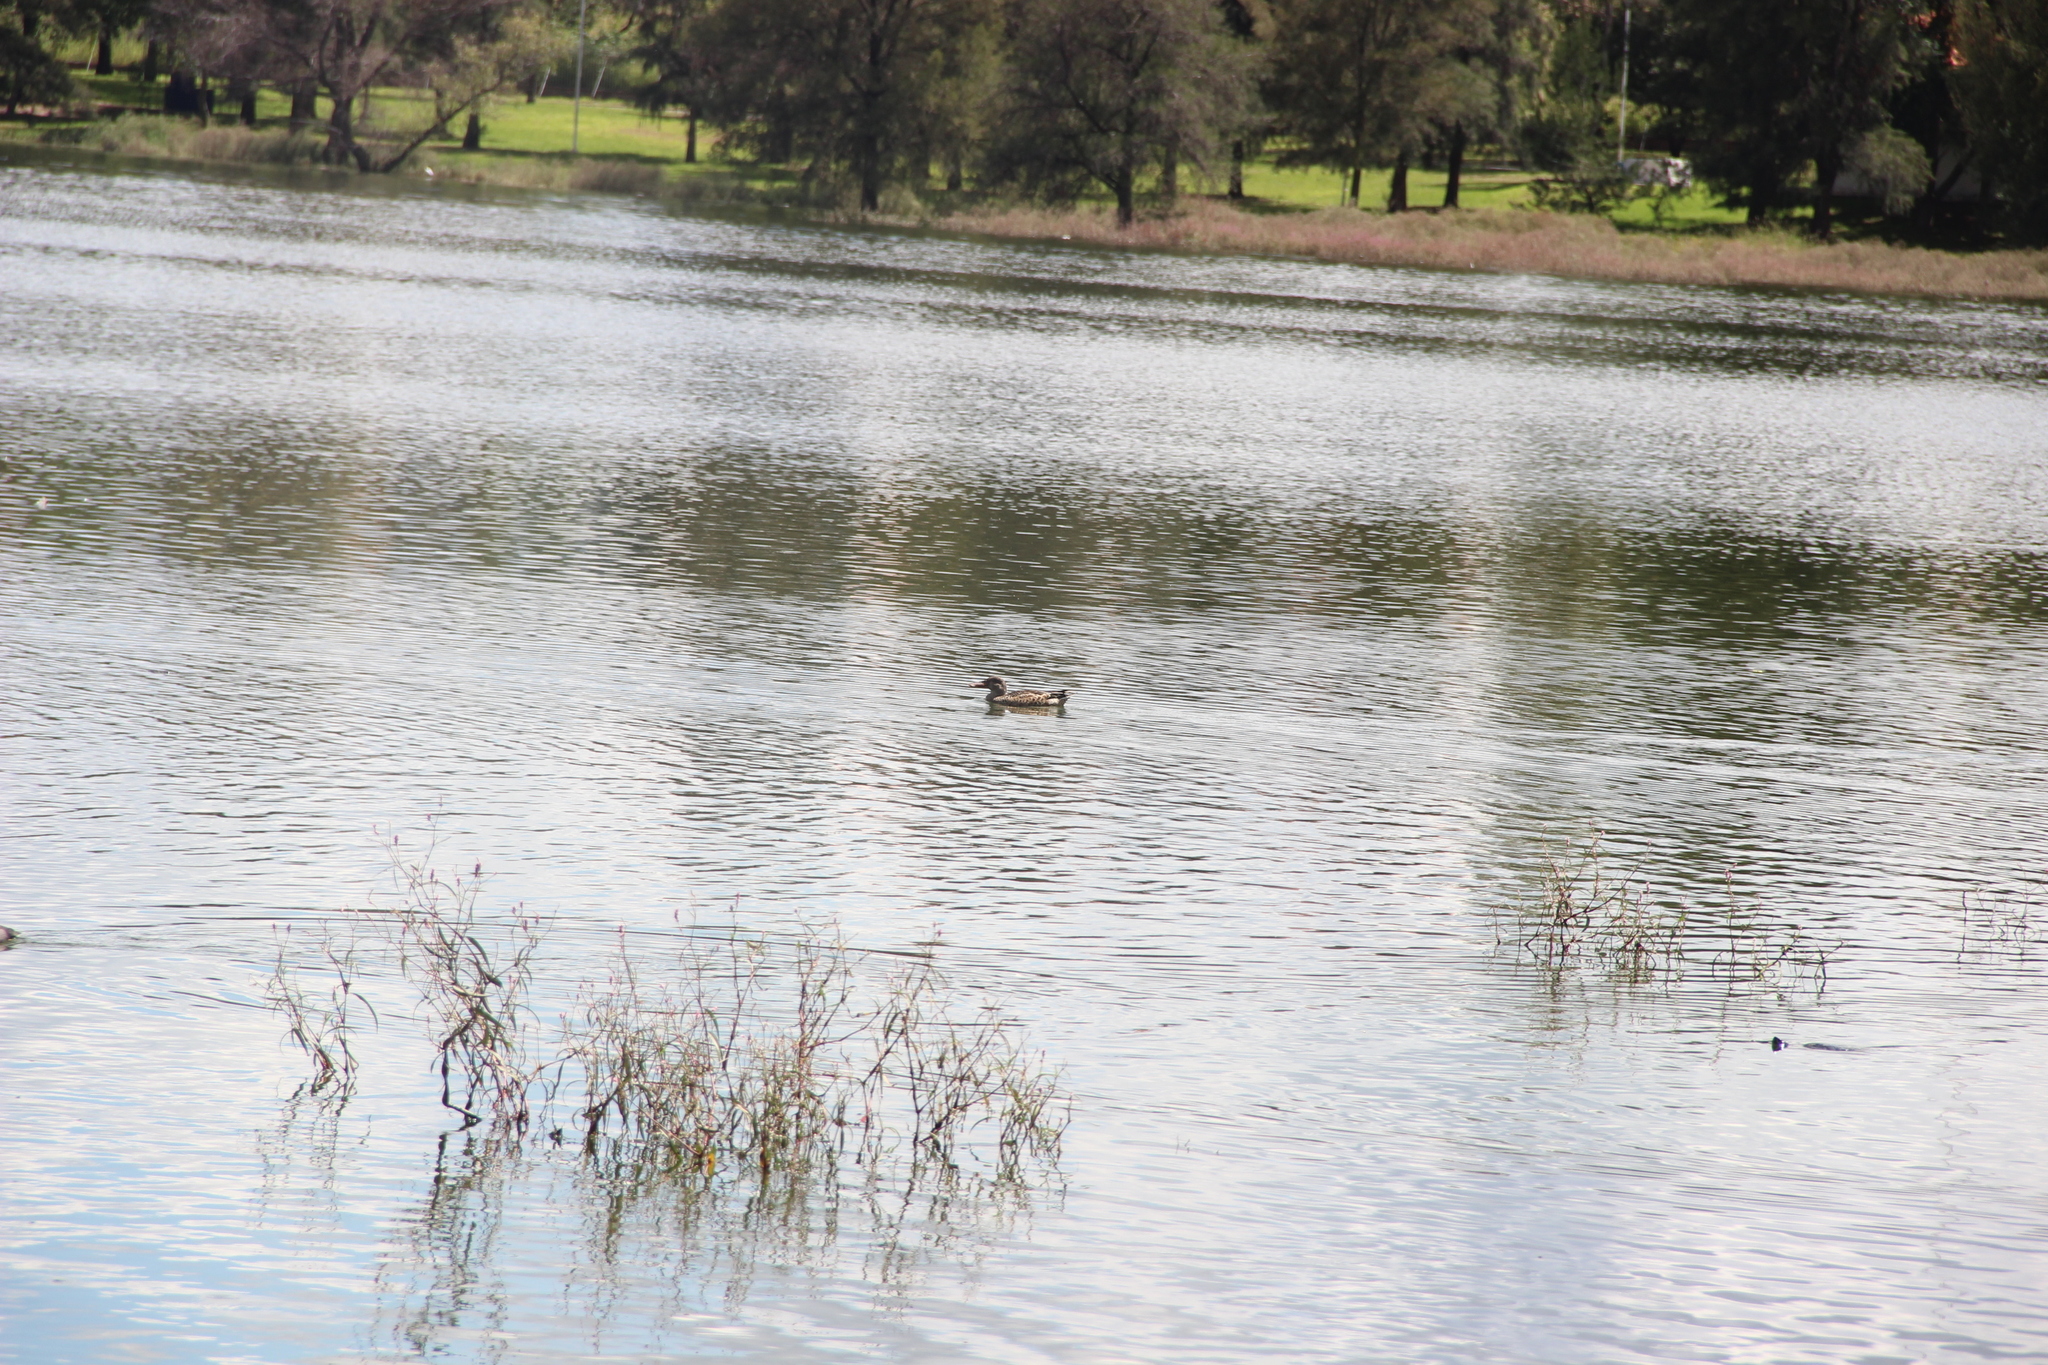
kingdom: Animalia
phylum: Chordata
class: Aves
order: Anseriformes
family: Anatidae
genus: Spatula
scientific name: Spatula clypeata
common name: Northern shoveler
